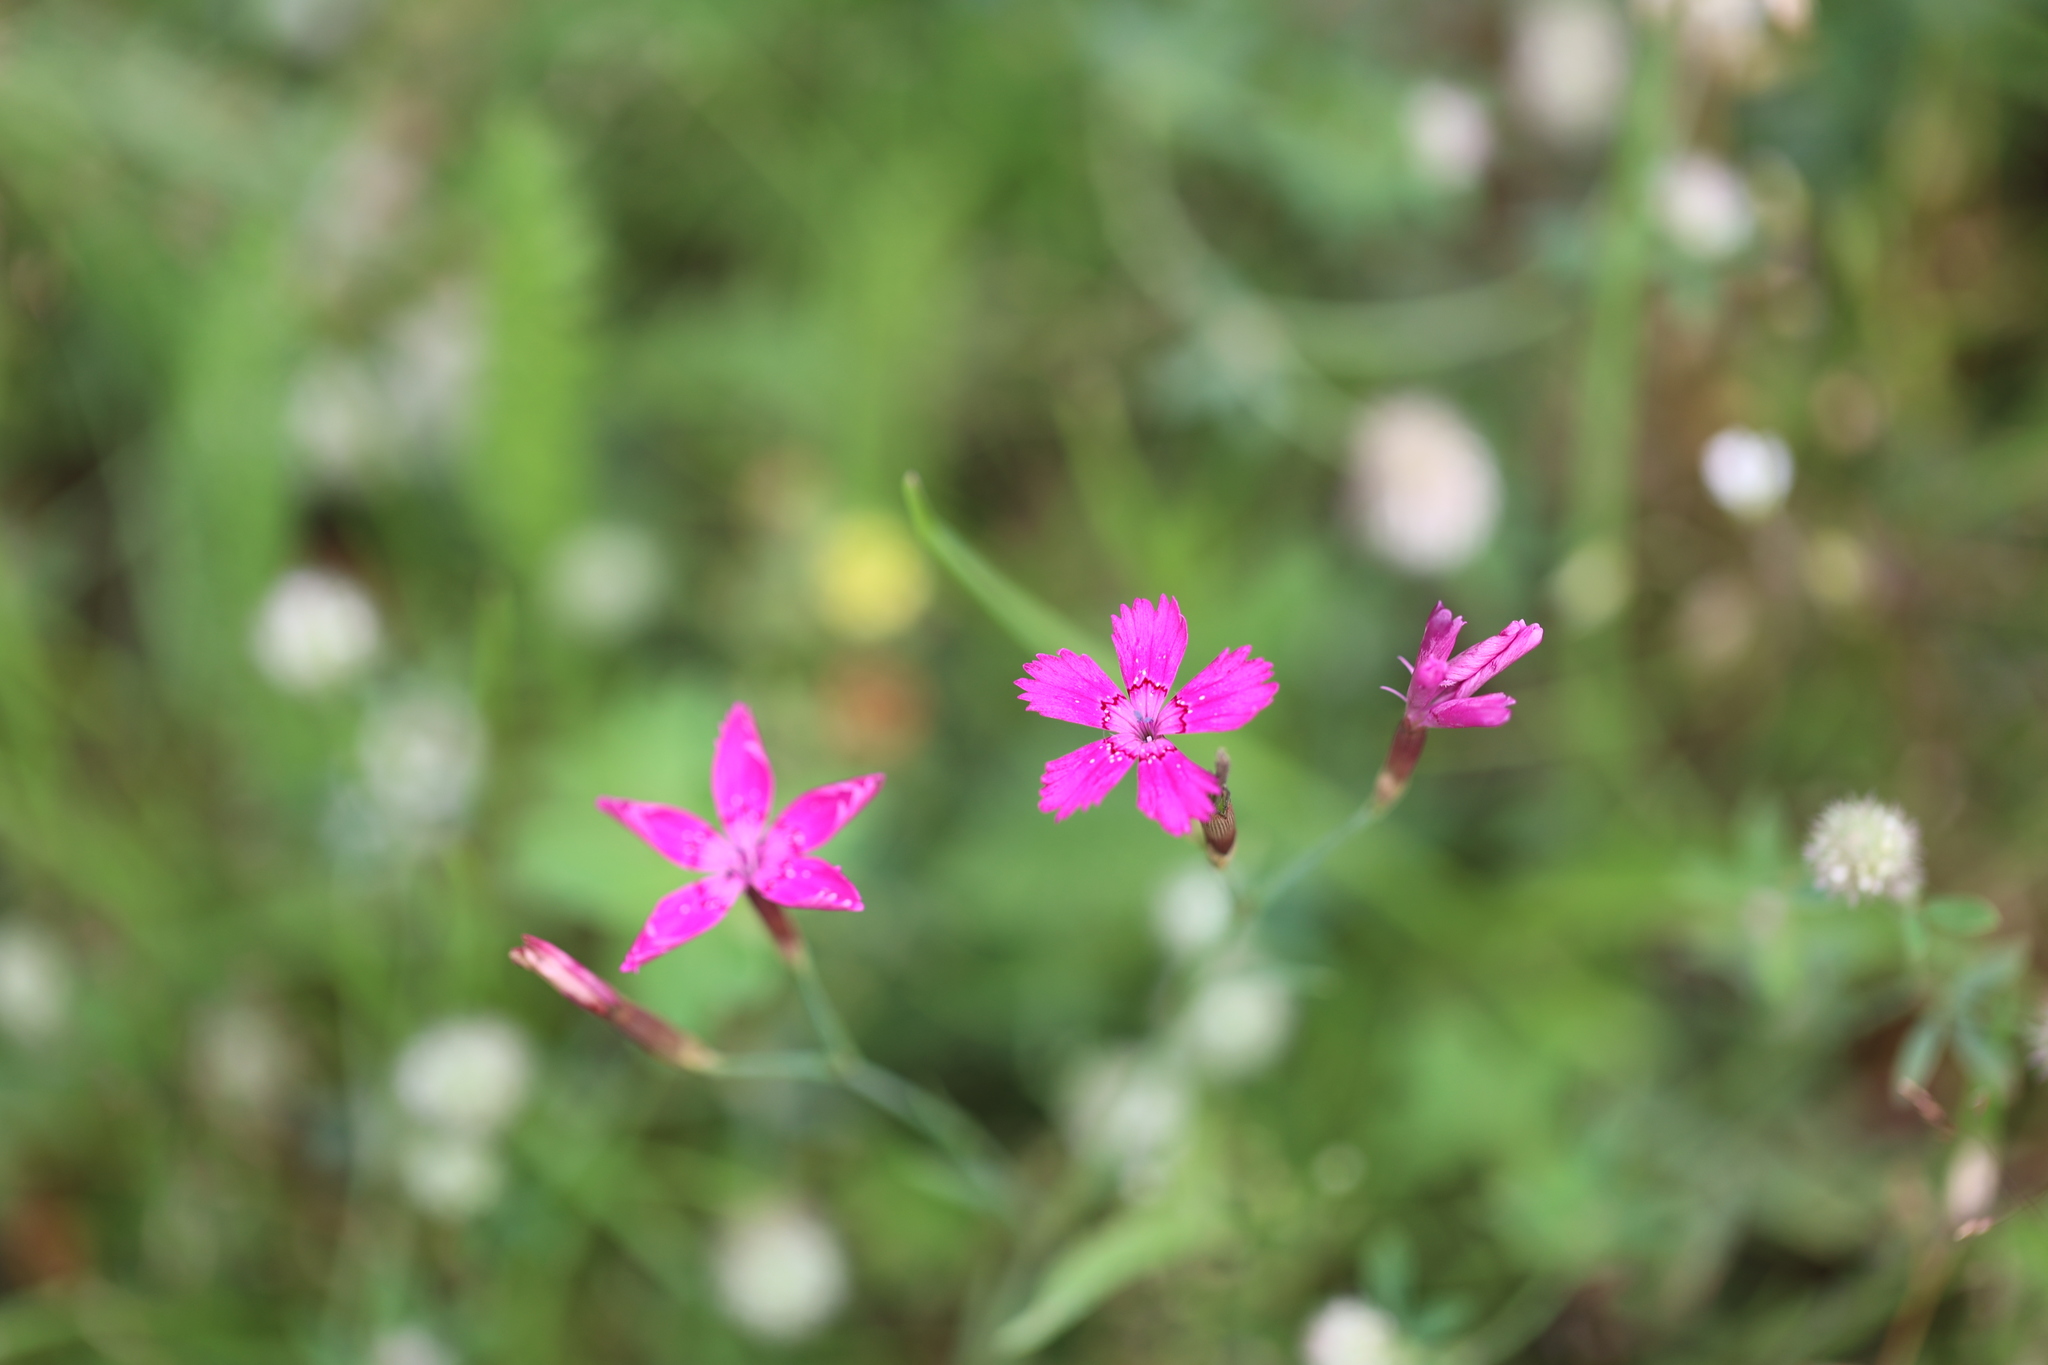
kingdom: Plantae
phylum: Tracheophyta
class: Magnoliopsida
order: Caryophyllales
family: Caryophyllaceae
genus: Dianthus
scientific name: Dianthus deltoides
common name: Maiden pink
